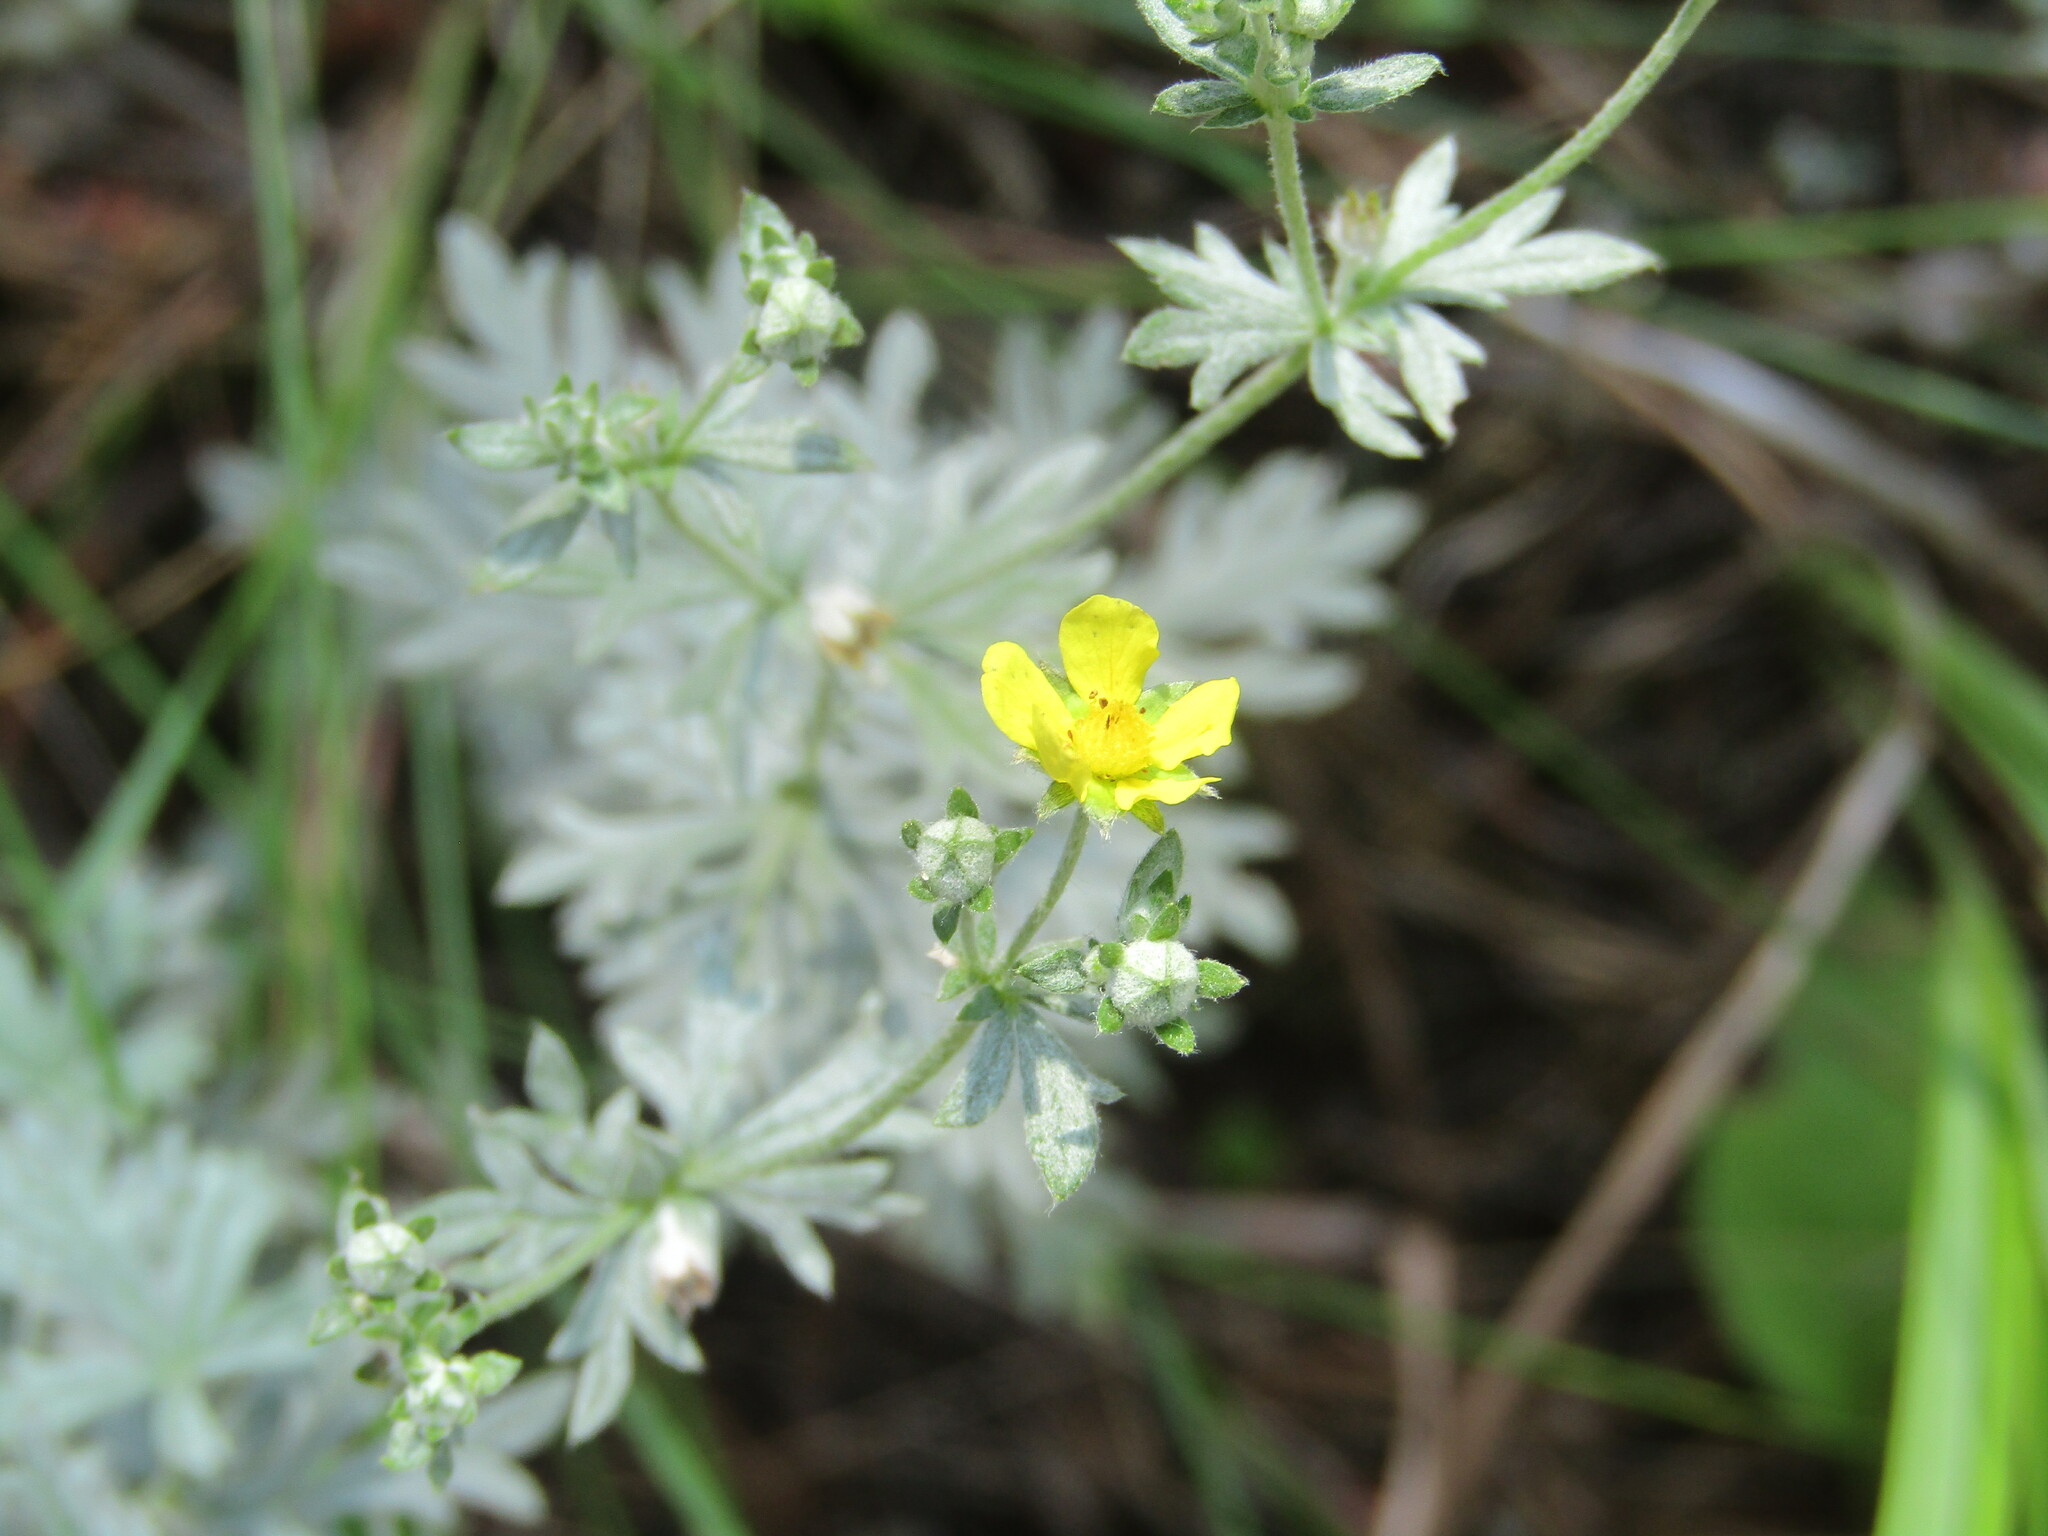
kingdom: Plantae
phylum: Tracheophyta
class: Magnoliopsida
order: Rosales
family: Rosaceae
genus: Potentilla
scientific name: Potentilla argentea
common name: Hoary cinquefoil
